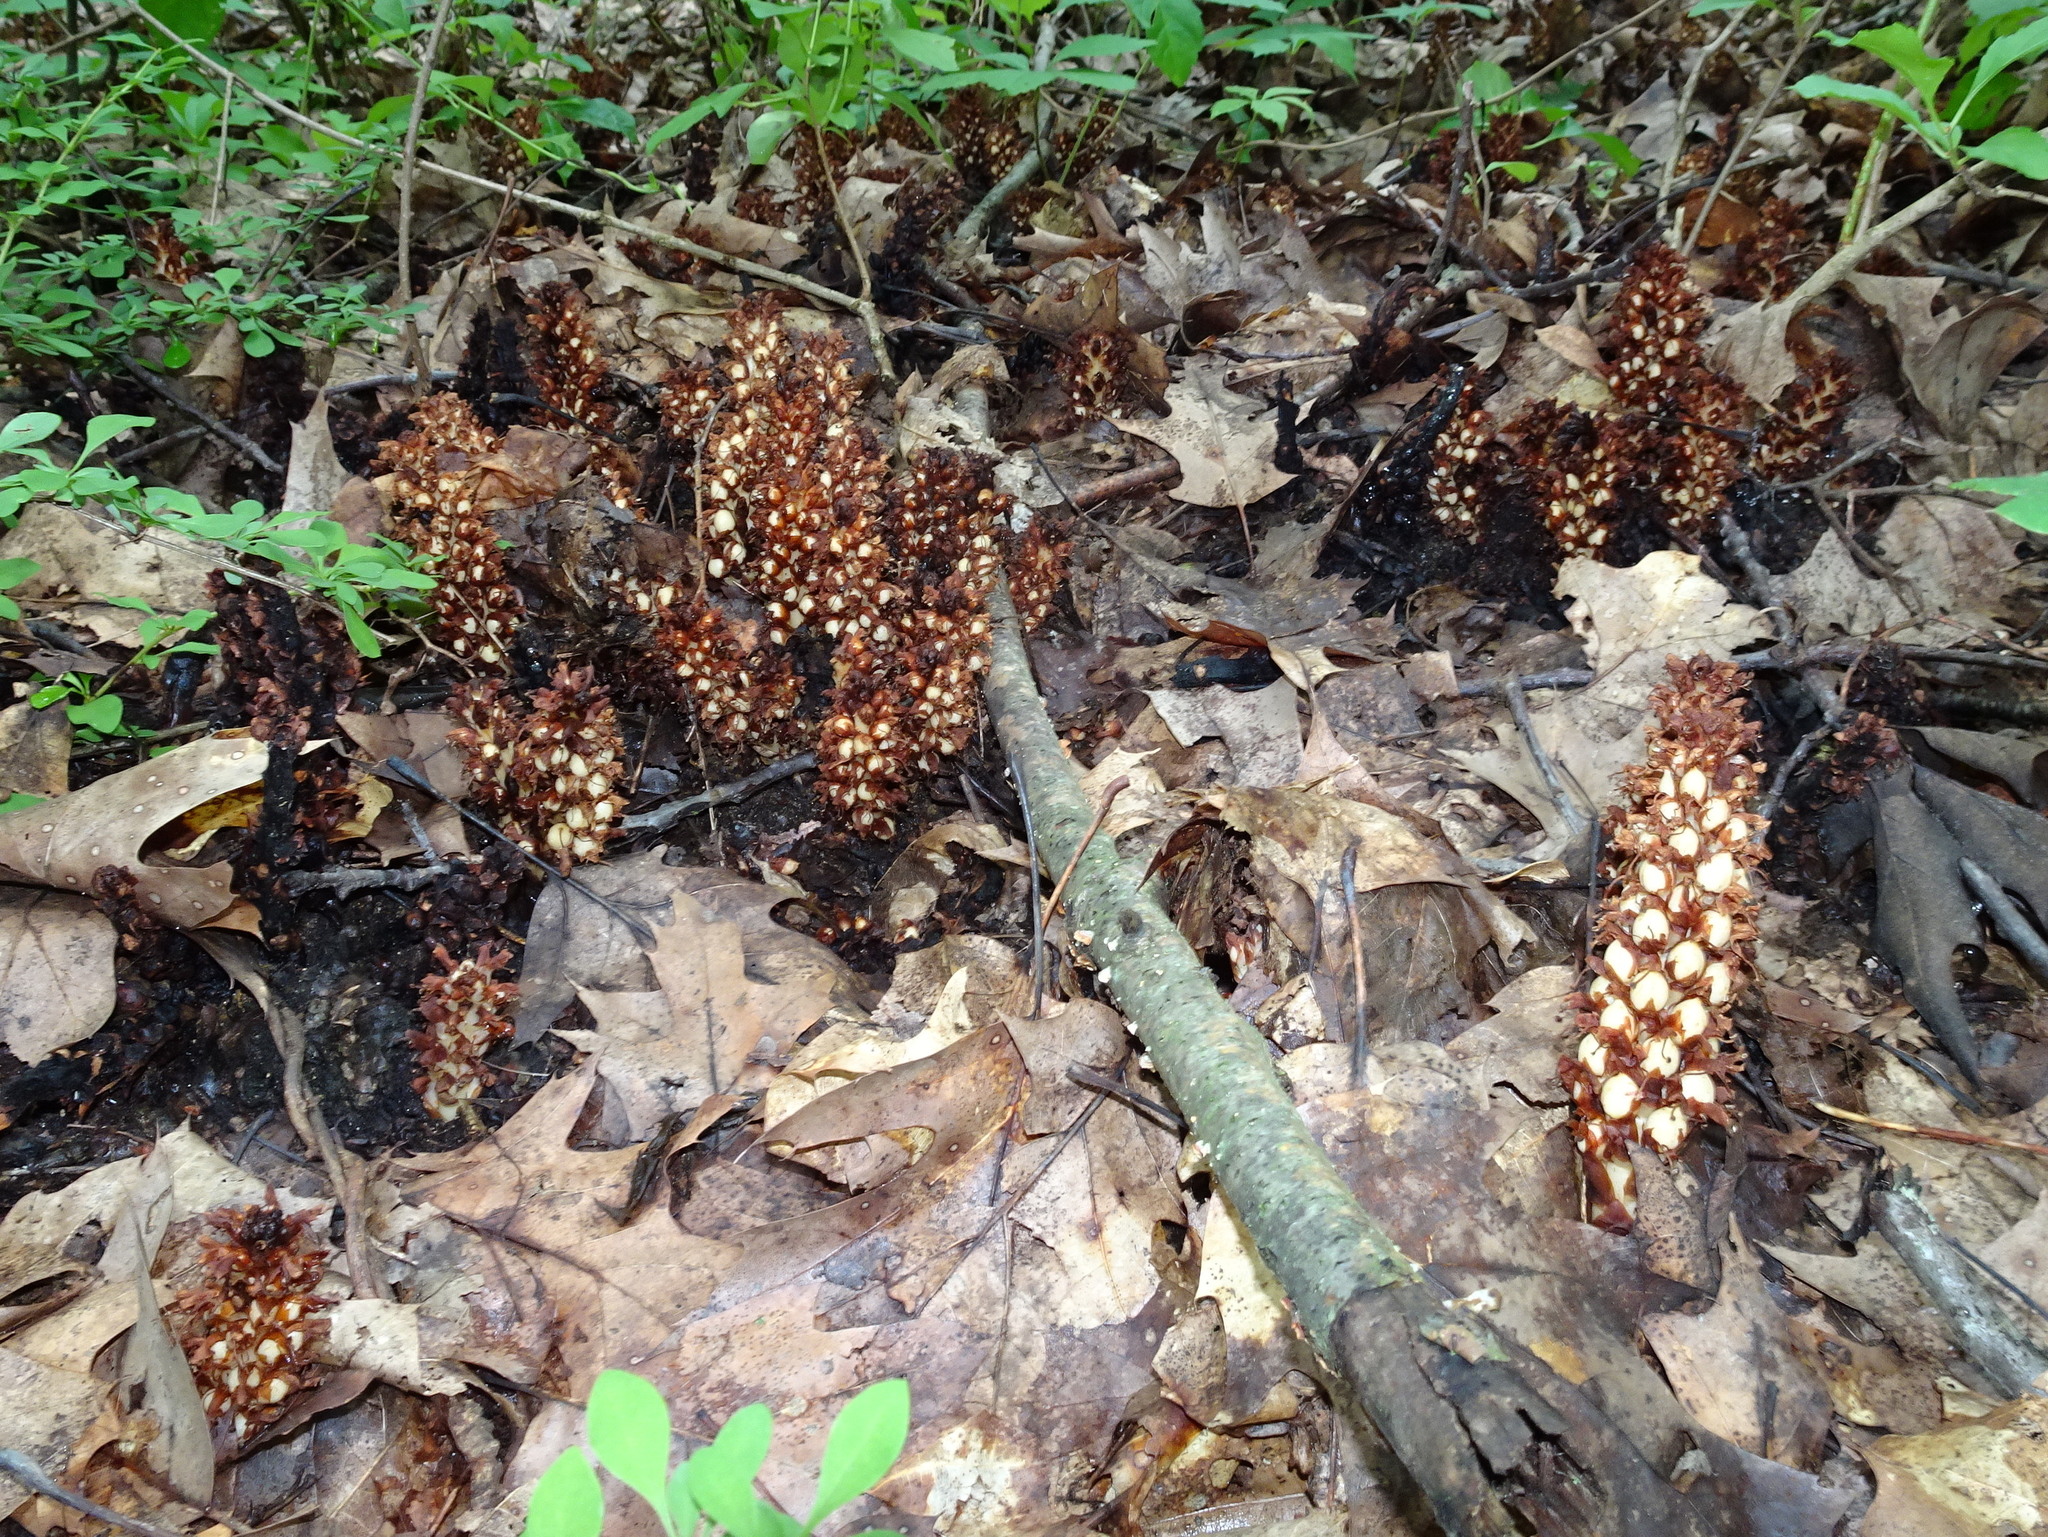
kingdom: Plantae
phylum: Tracheophyta
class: Magnoliopsida
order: Lamiales
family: Orobanchaceae
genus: Conopholis
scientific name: Conopholis americana
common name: American cancer-root
